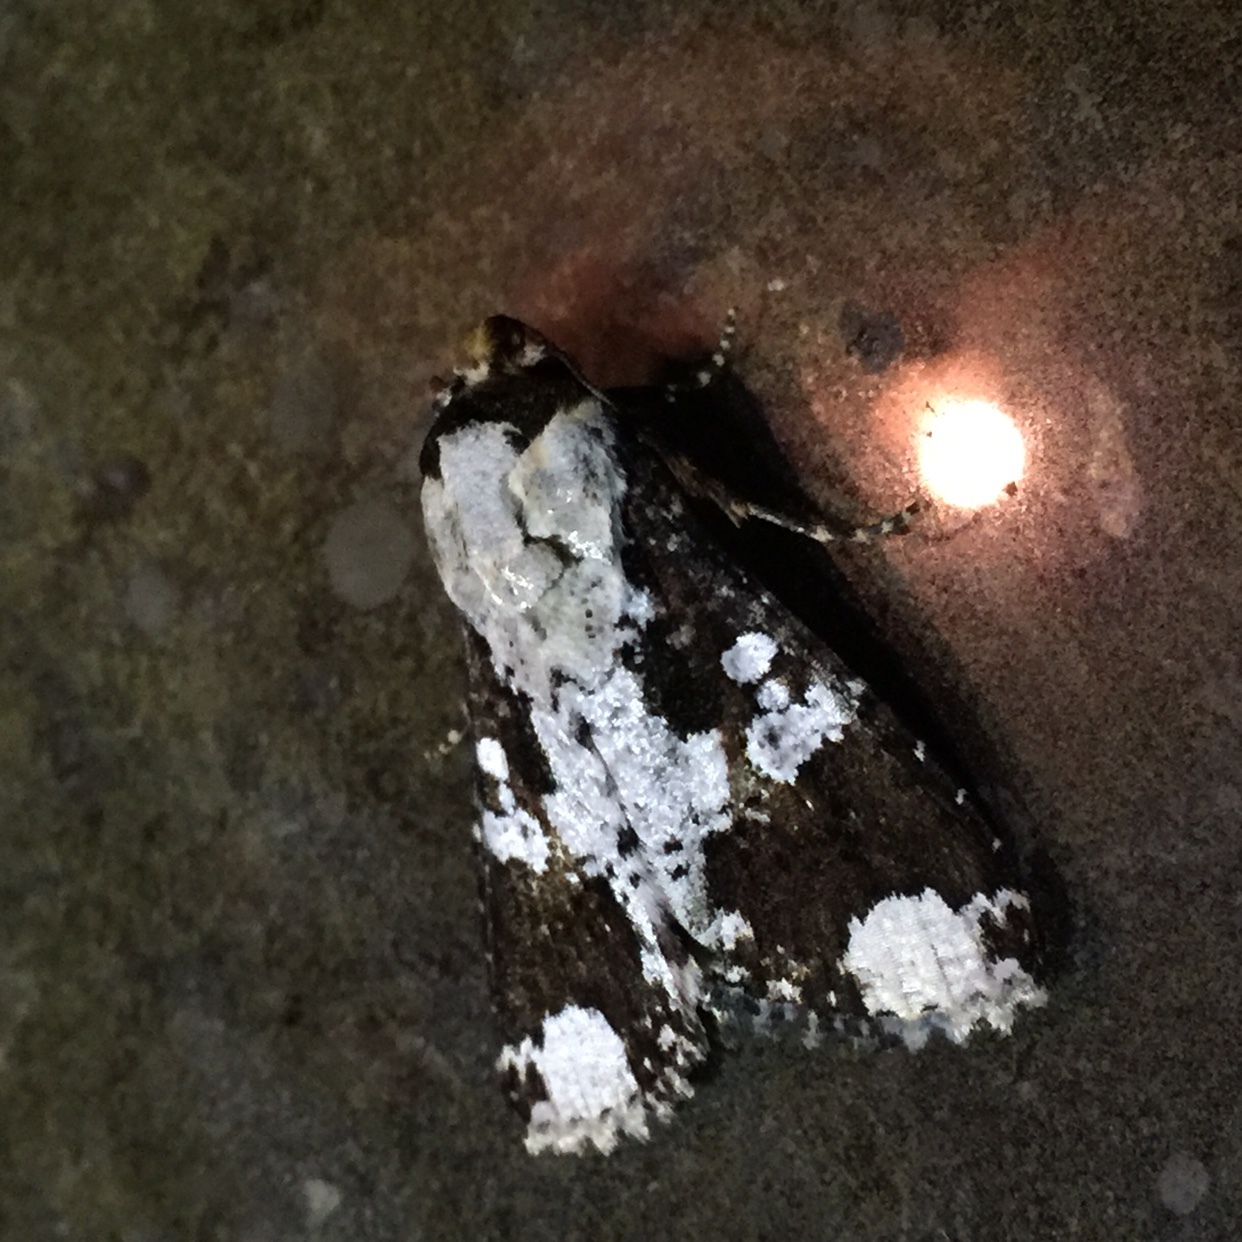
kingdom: Animalia
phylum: Arthropoda
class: Insecta
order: Lepidoptera
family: Noctuidae
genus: Condica
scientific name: Condica mimica
